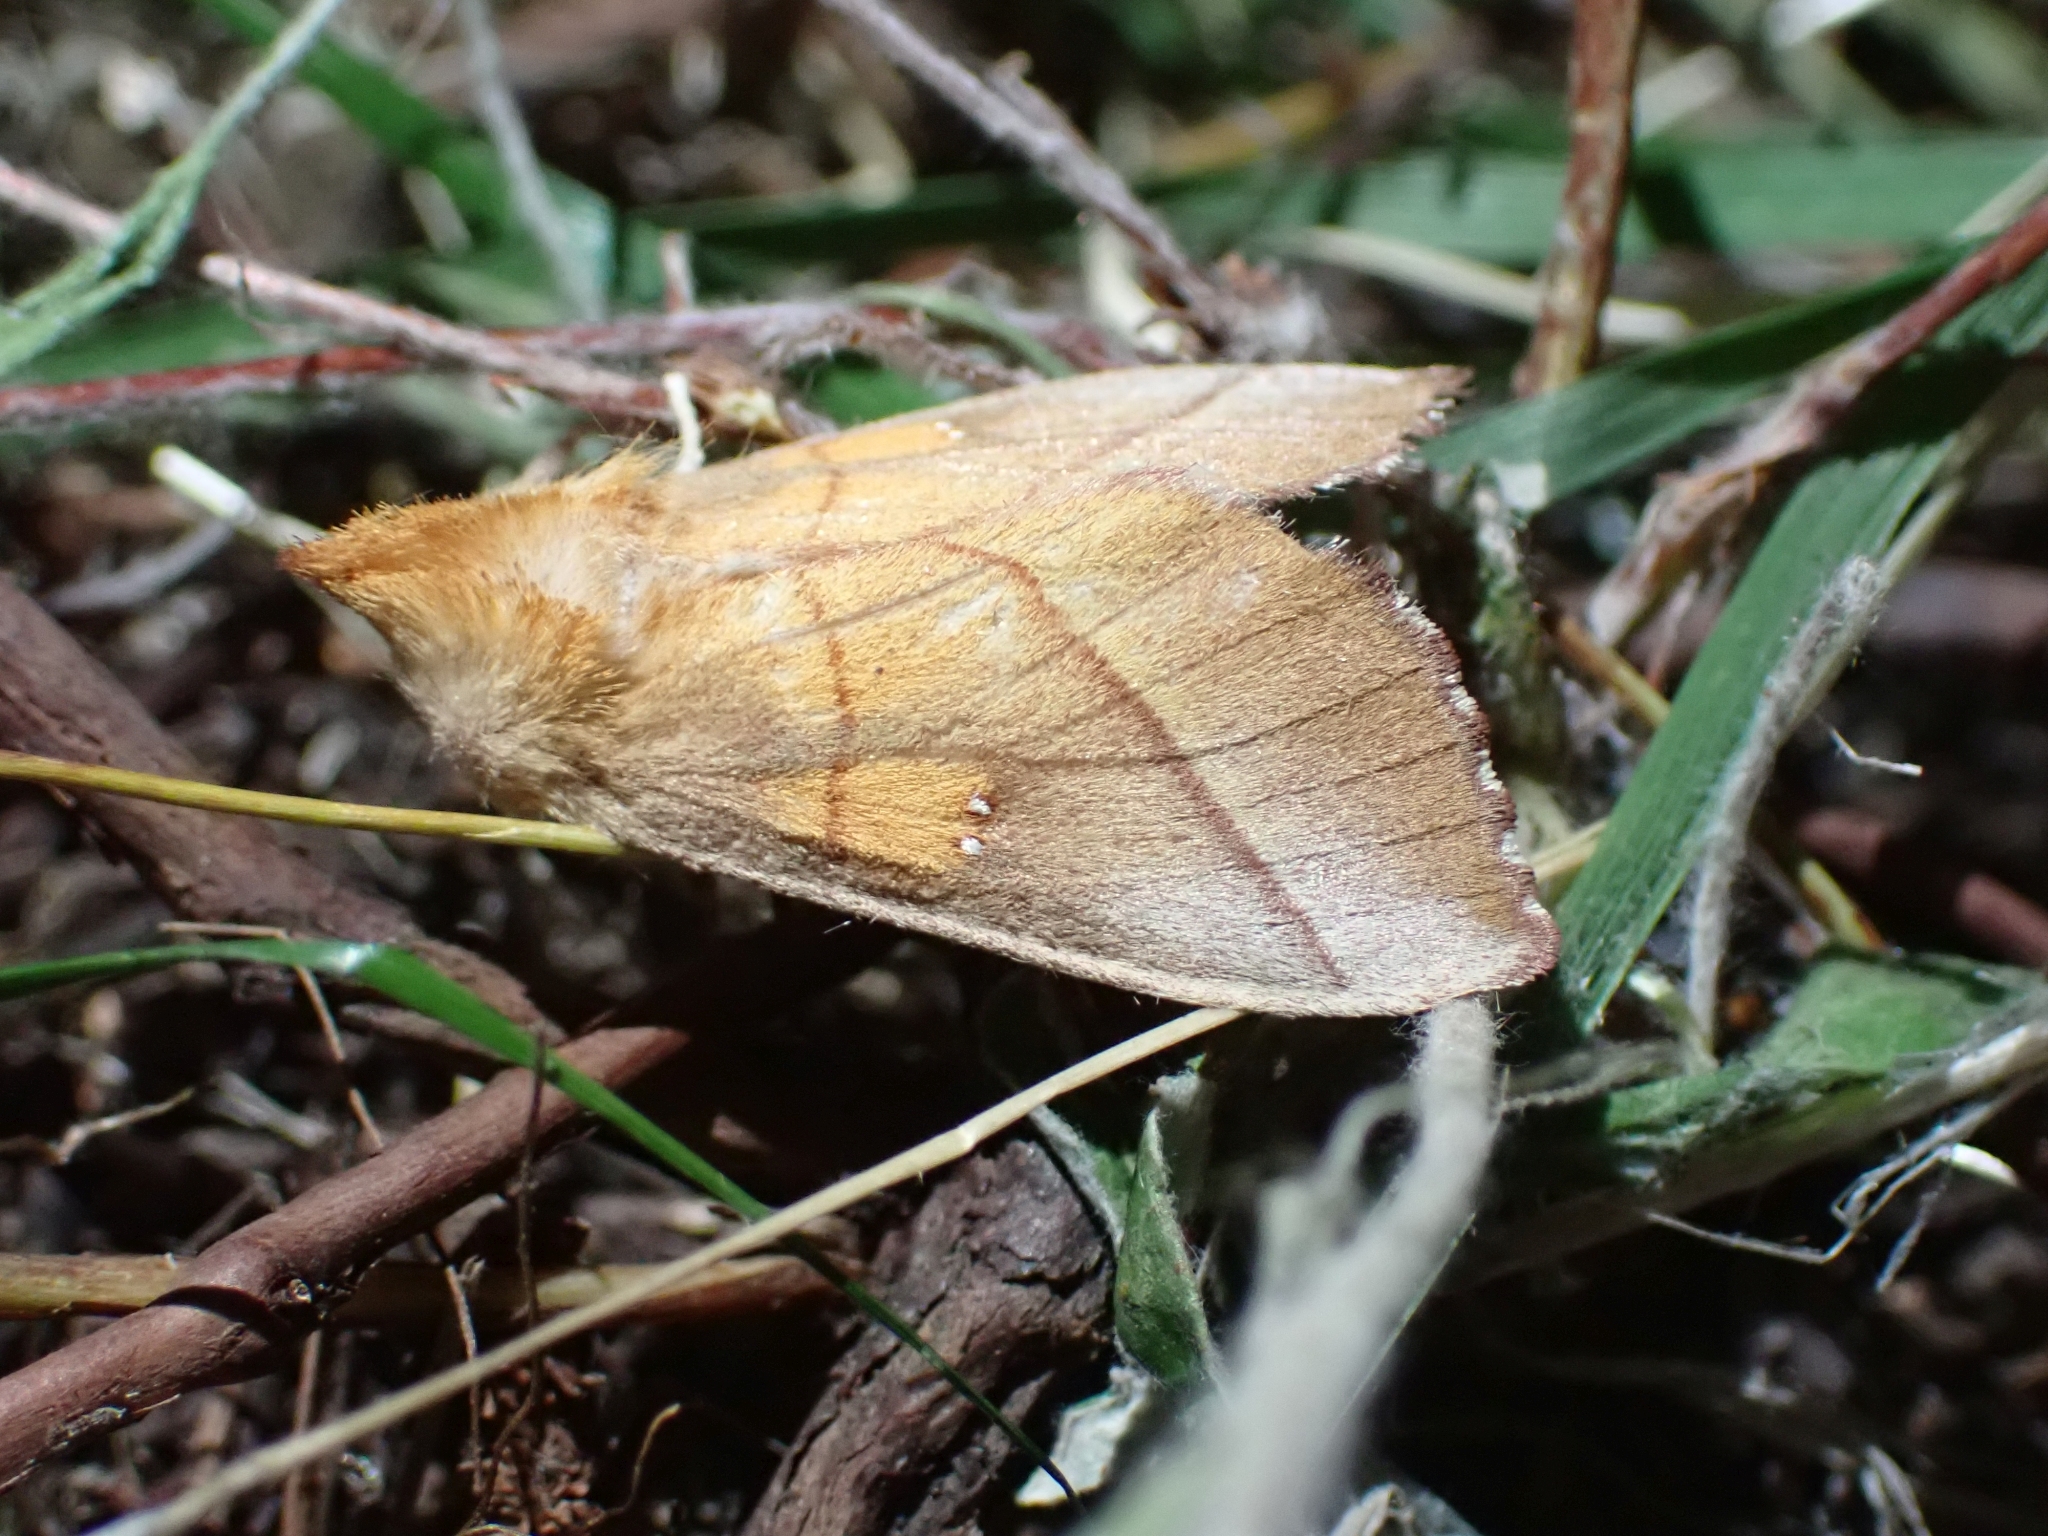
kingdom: Animalia
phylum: Arthropoda
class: Insecta
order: Lepidoptera
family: Notodontidae
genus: Nadata
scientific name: Nadata gibbosa
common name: White-dotted prominent
